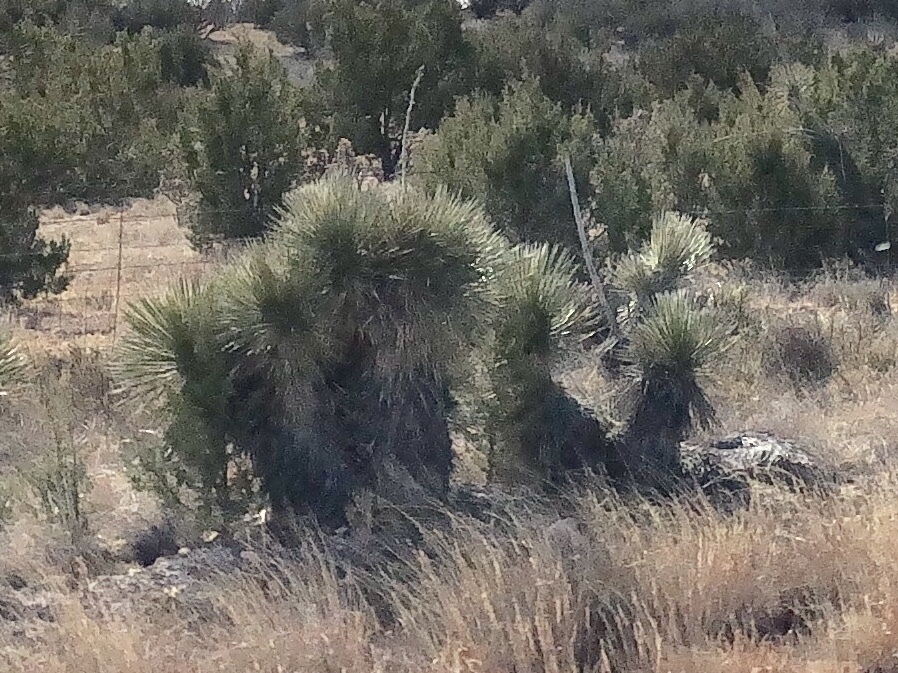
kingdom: Plantae
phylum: Tracheophyta
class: Liliopsida
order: Asparagales
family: Asparagaceae
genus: Yucca
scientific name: Yucca elata
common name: Palmella
